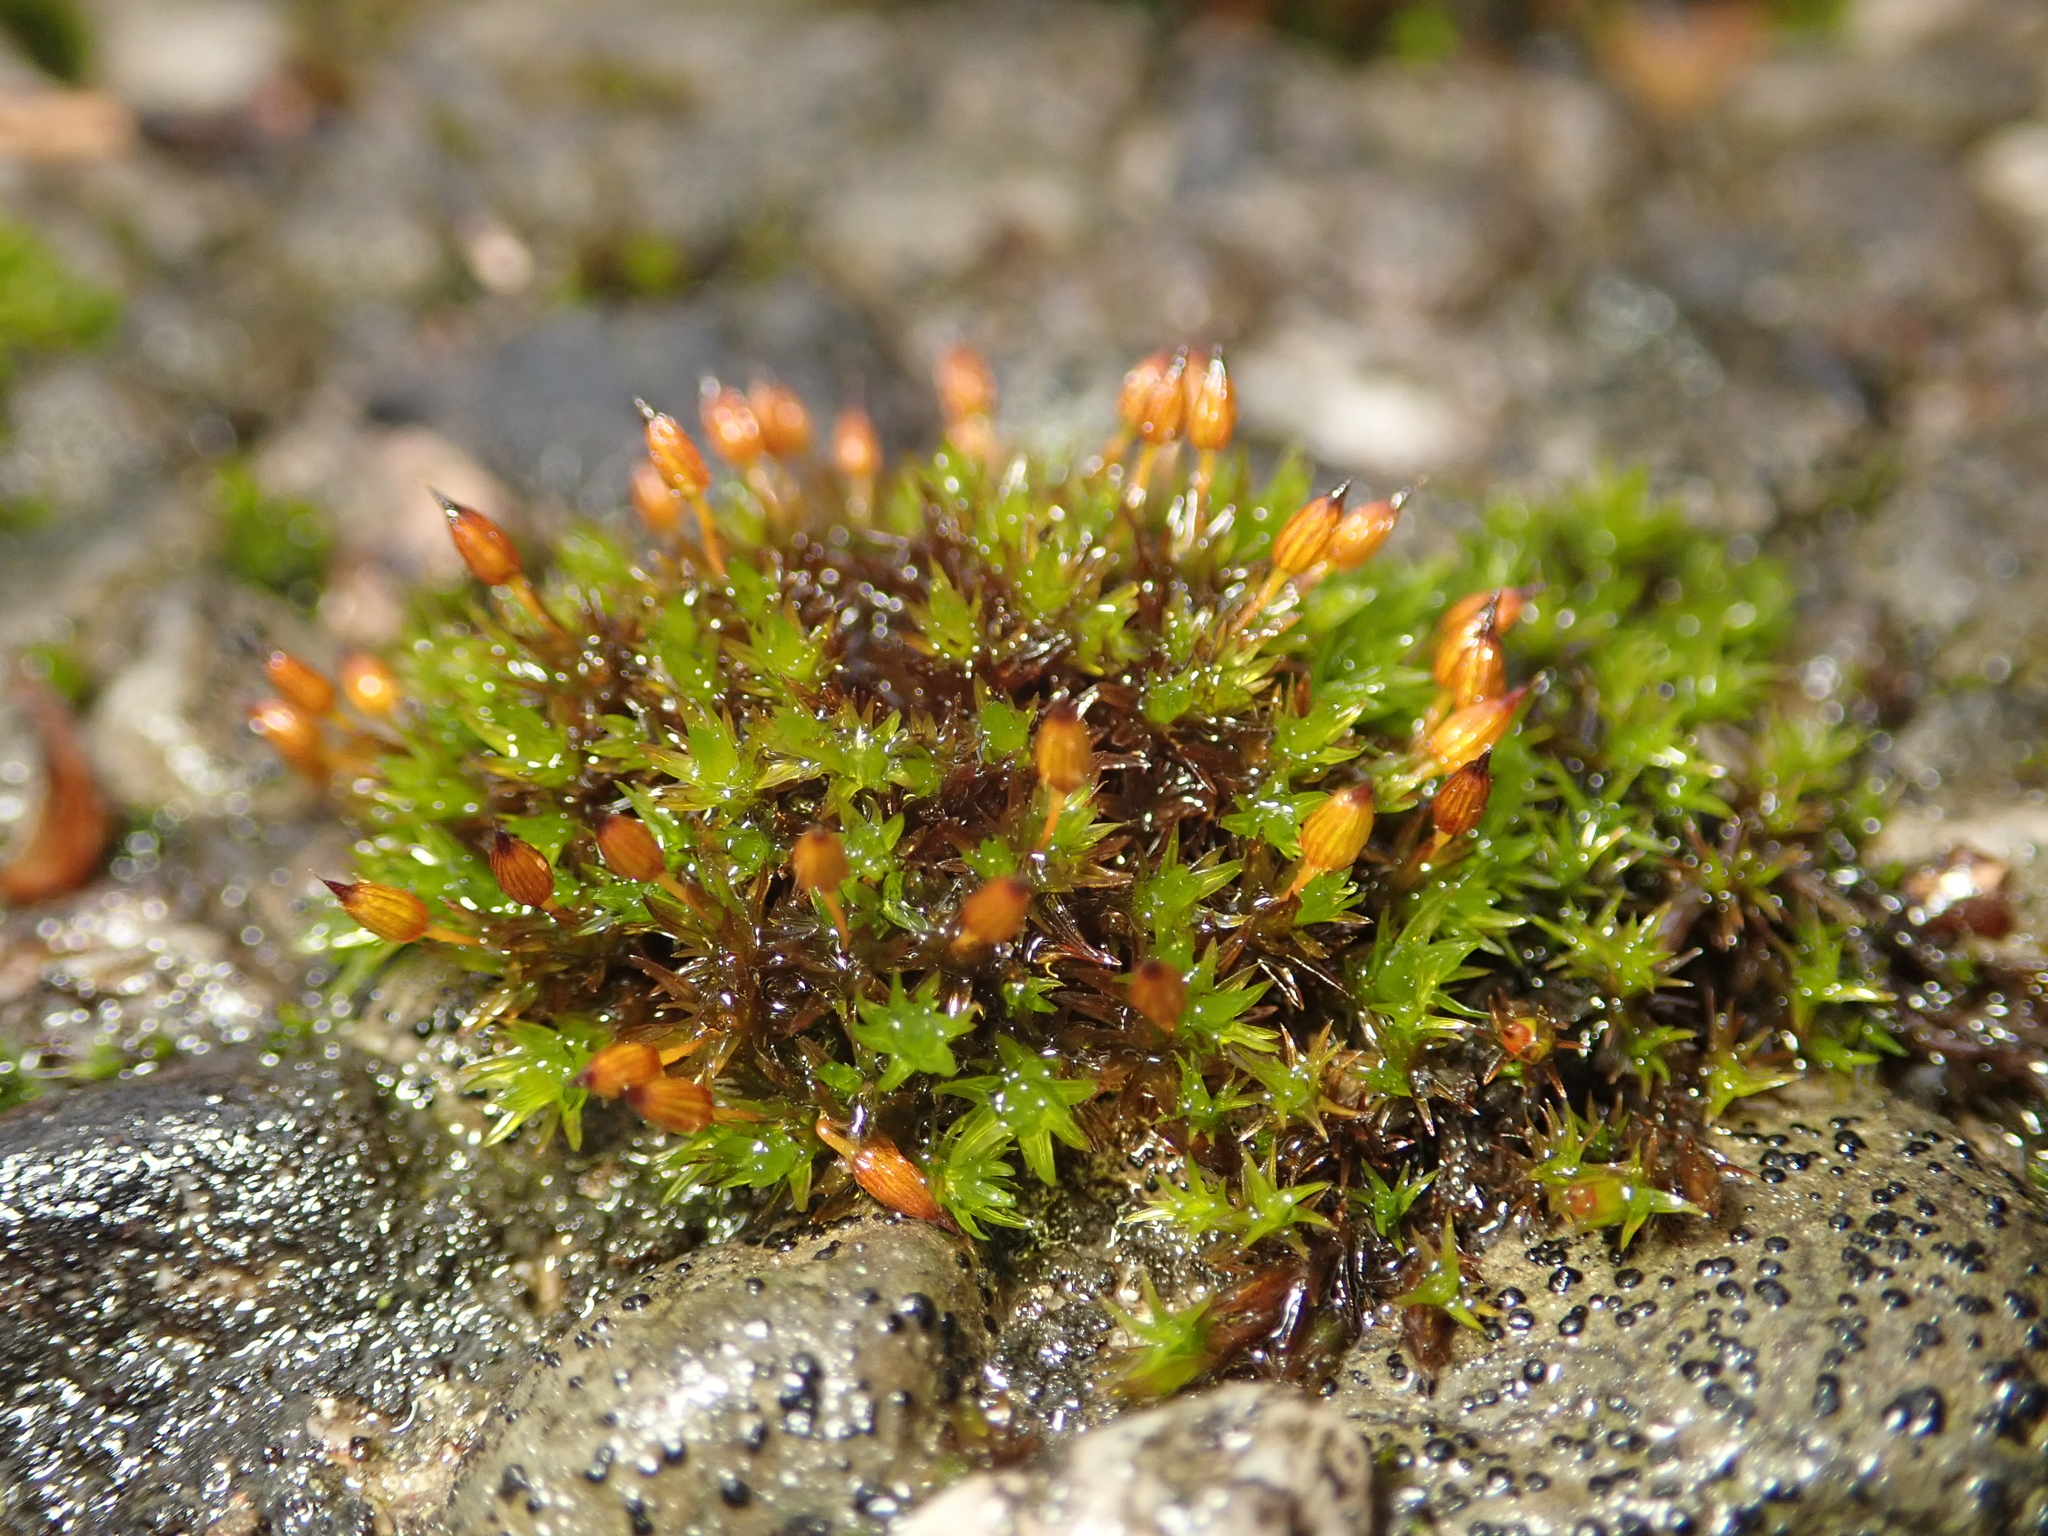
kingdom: Plantae
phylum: Bryophyta
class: Bryopsida
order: Orthotrichales
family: Orthotrichaceae
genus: Orthotrichum
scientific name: Orthotrichum anomalum
